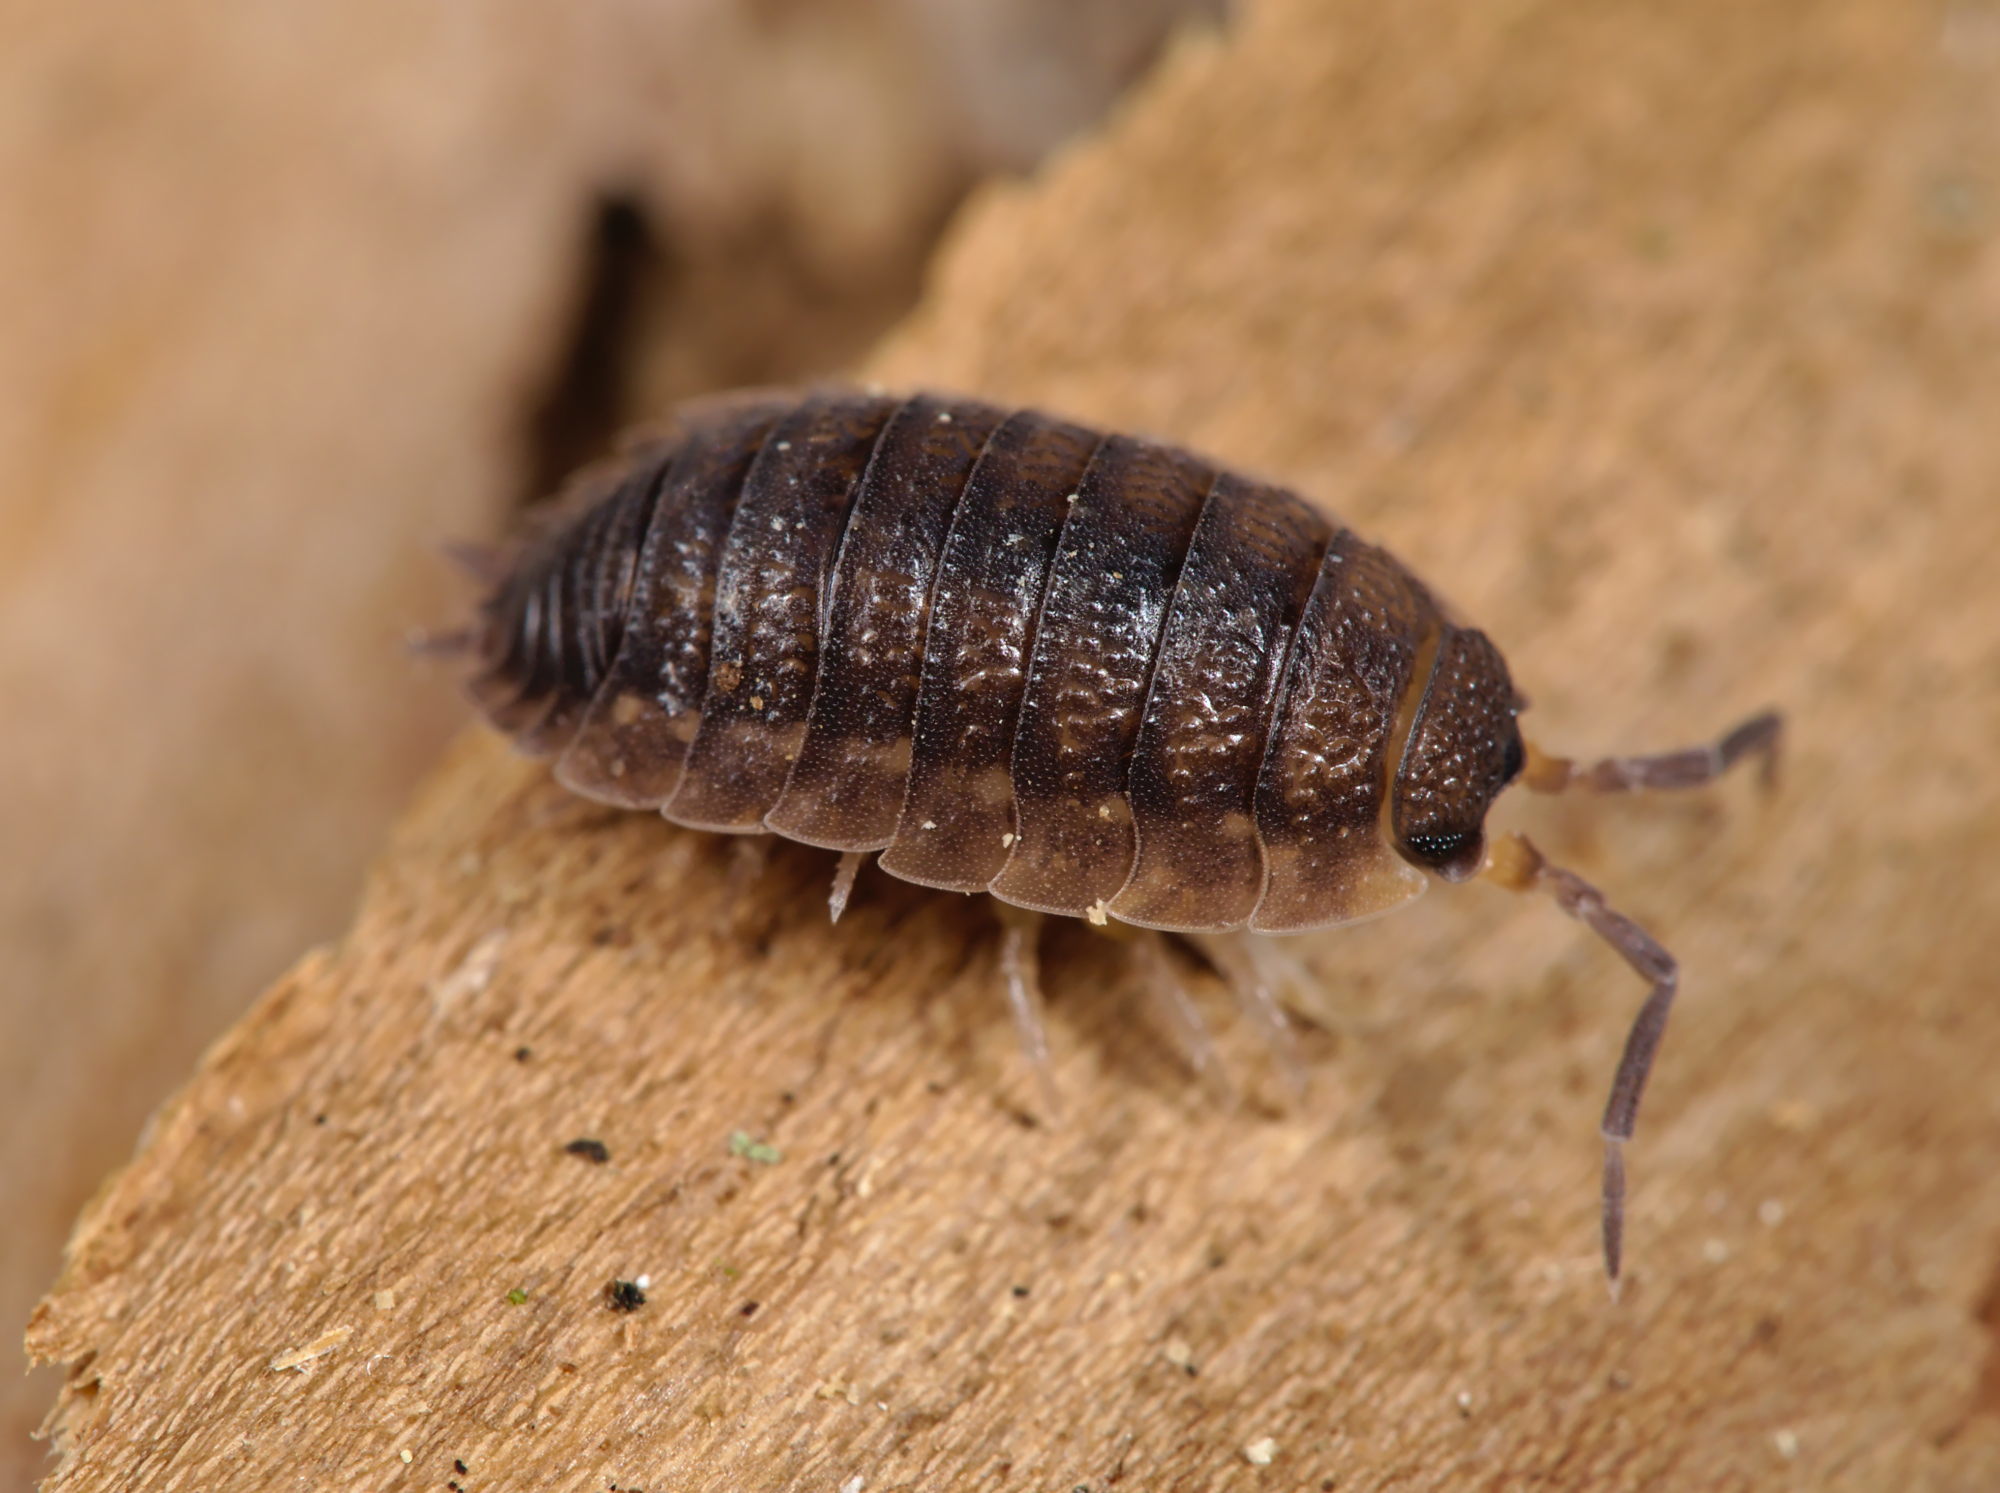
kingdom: Animalia
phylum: Arthropoda
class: Malacostraca
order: Isopoda
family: Porcellionidae
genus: Porcellio
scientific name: Porcellio scaber
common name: Common rough woodlouse
